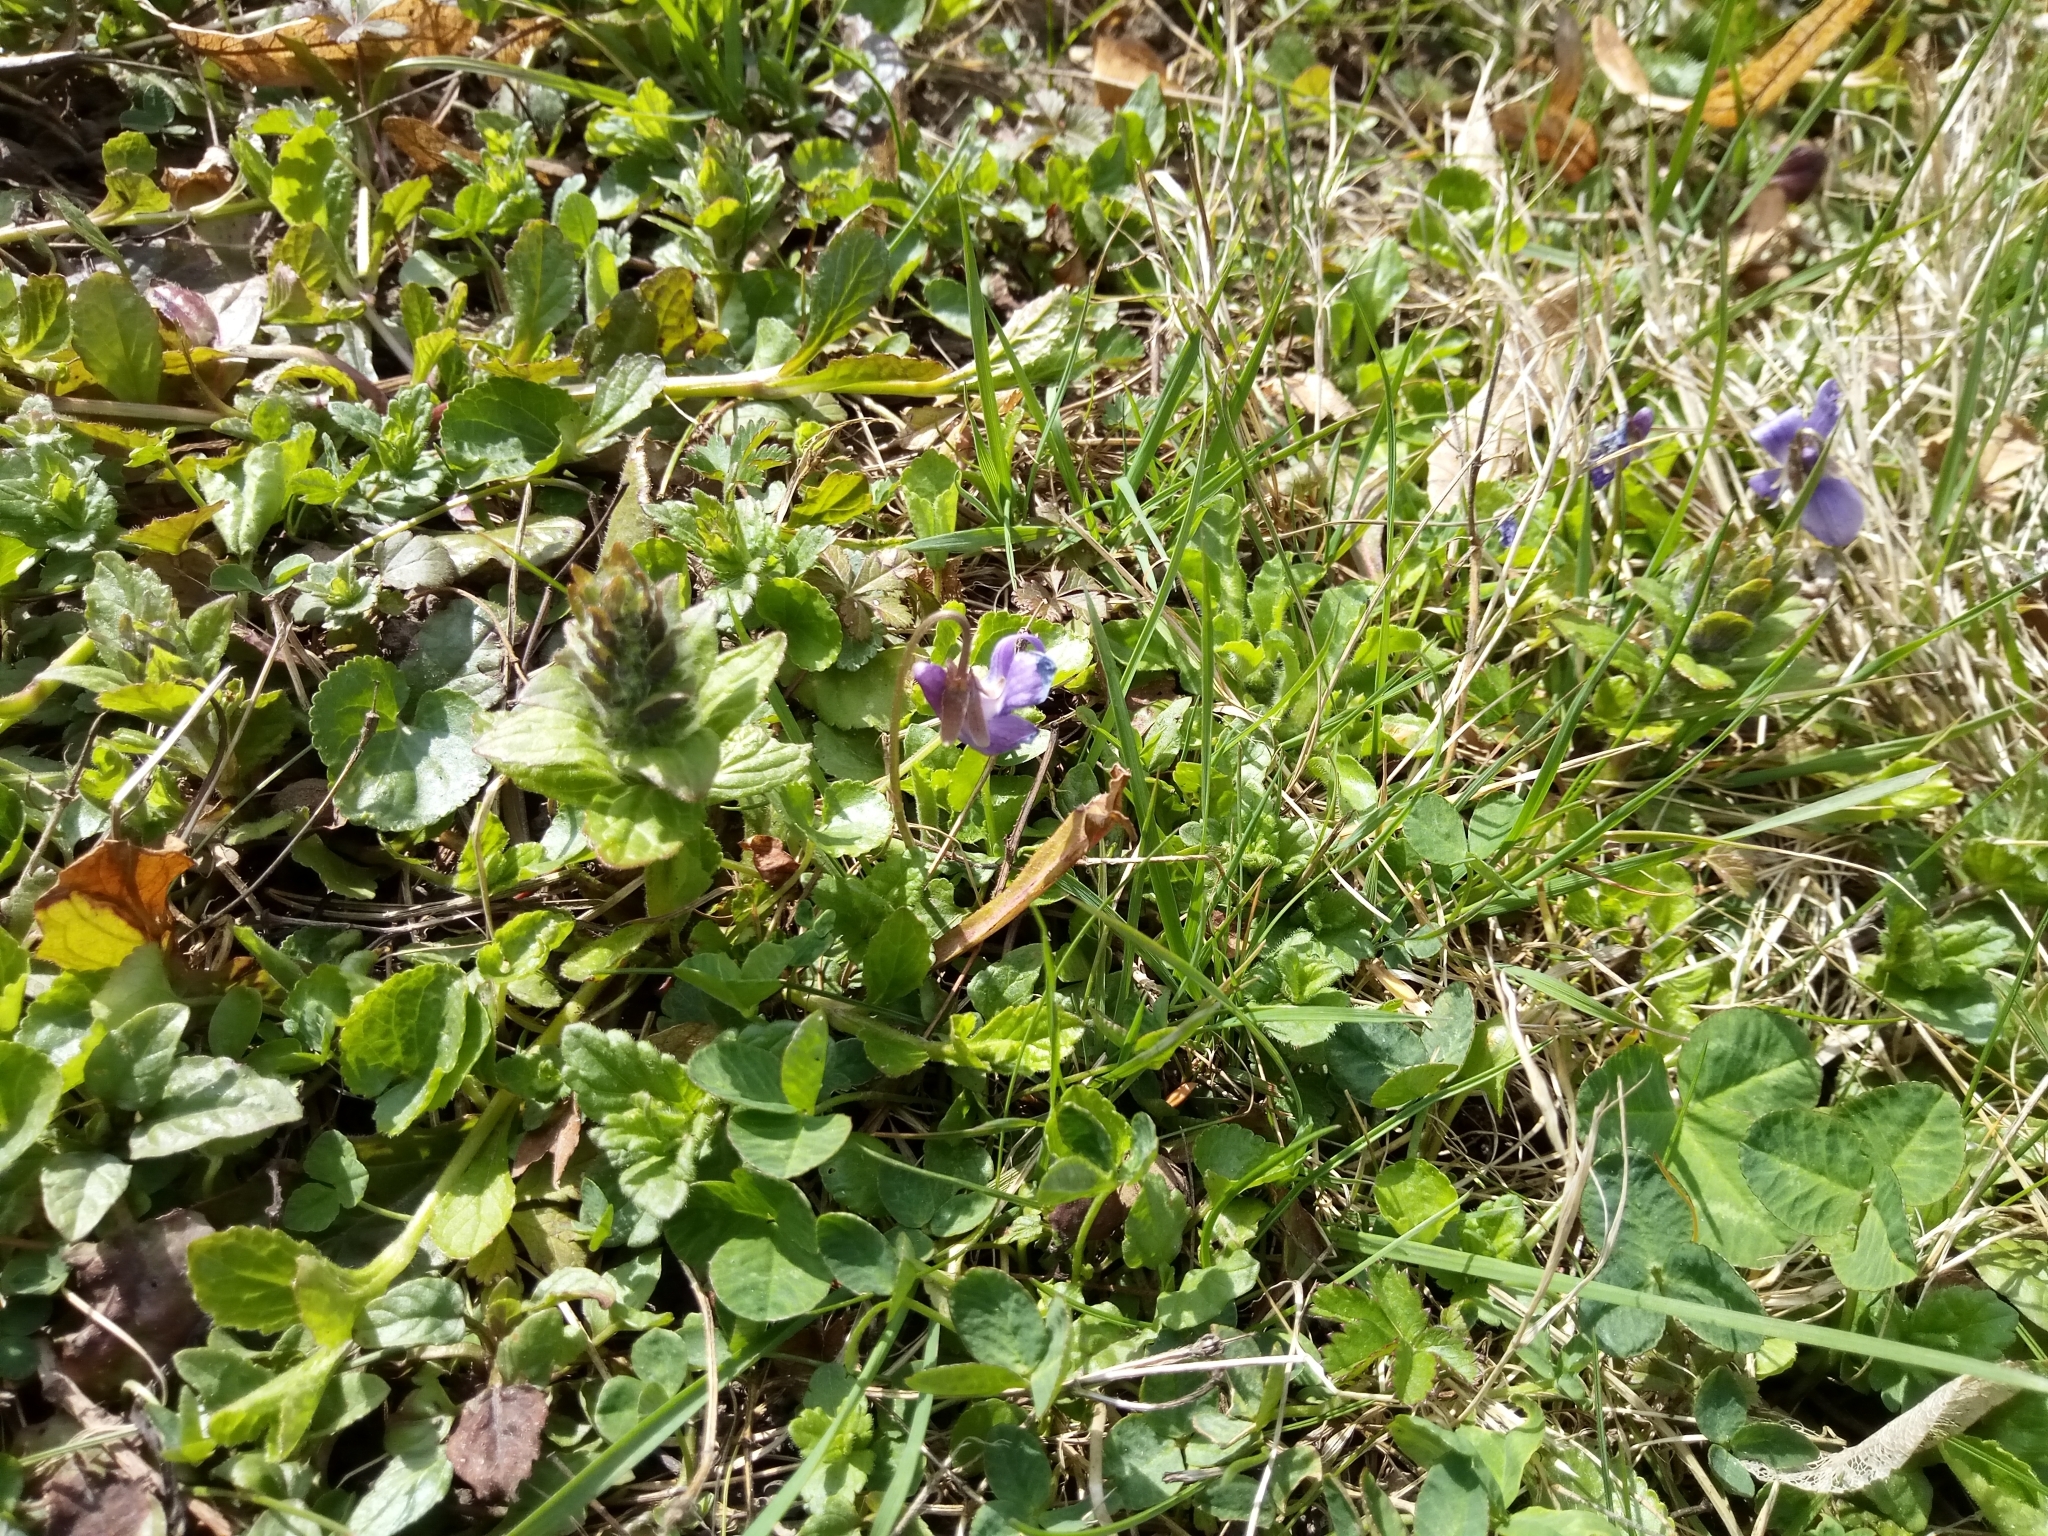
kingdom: Plantae
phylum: Tracheophyta
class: Magnoliopsida
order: Malpighiales
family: Violaceae
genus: Viola
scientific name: Viola odorata
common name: Sweet violet
